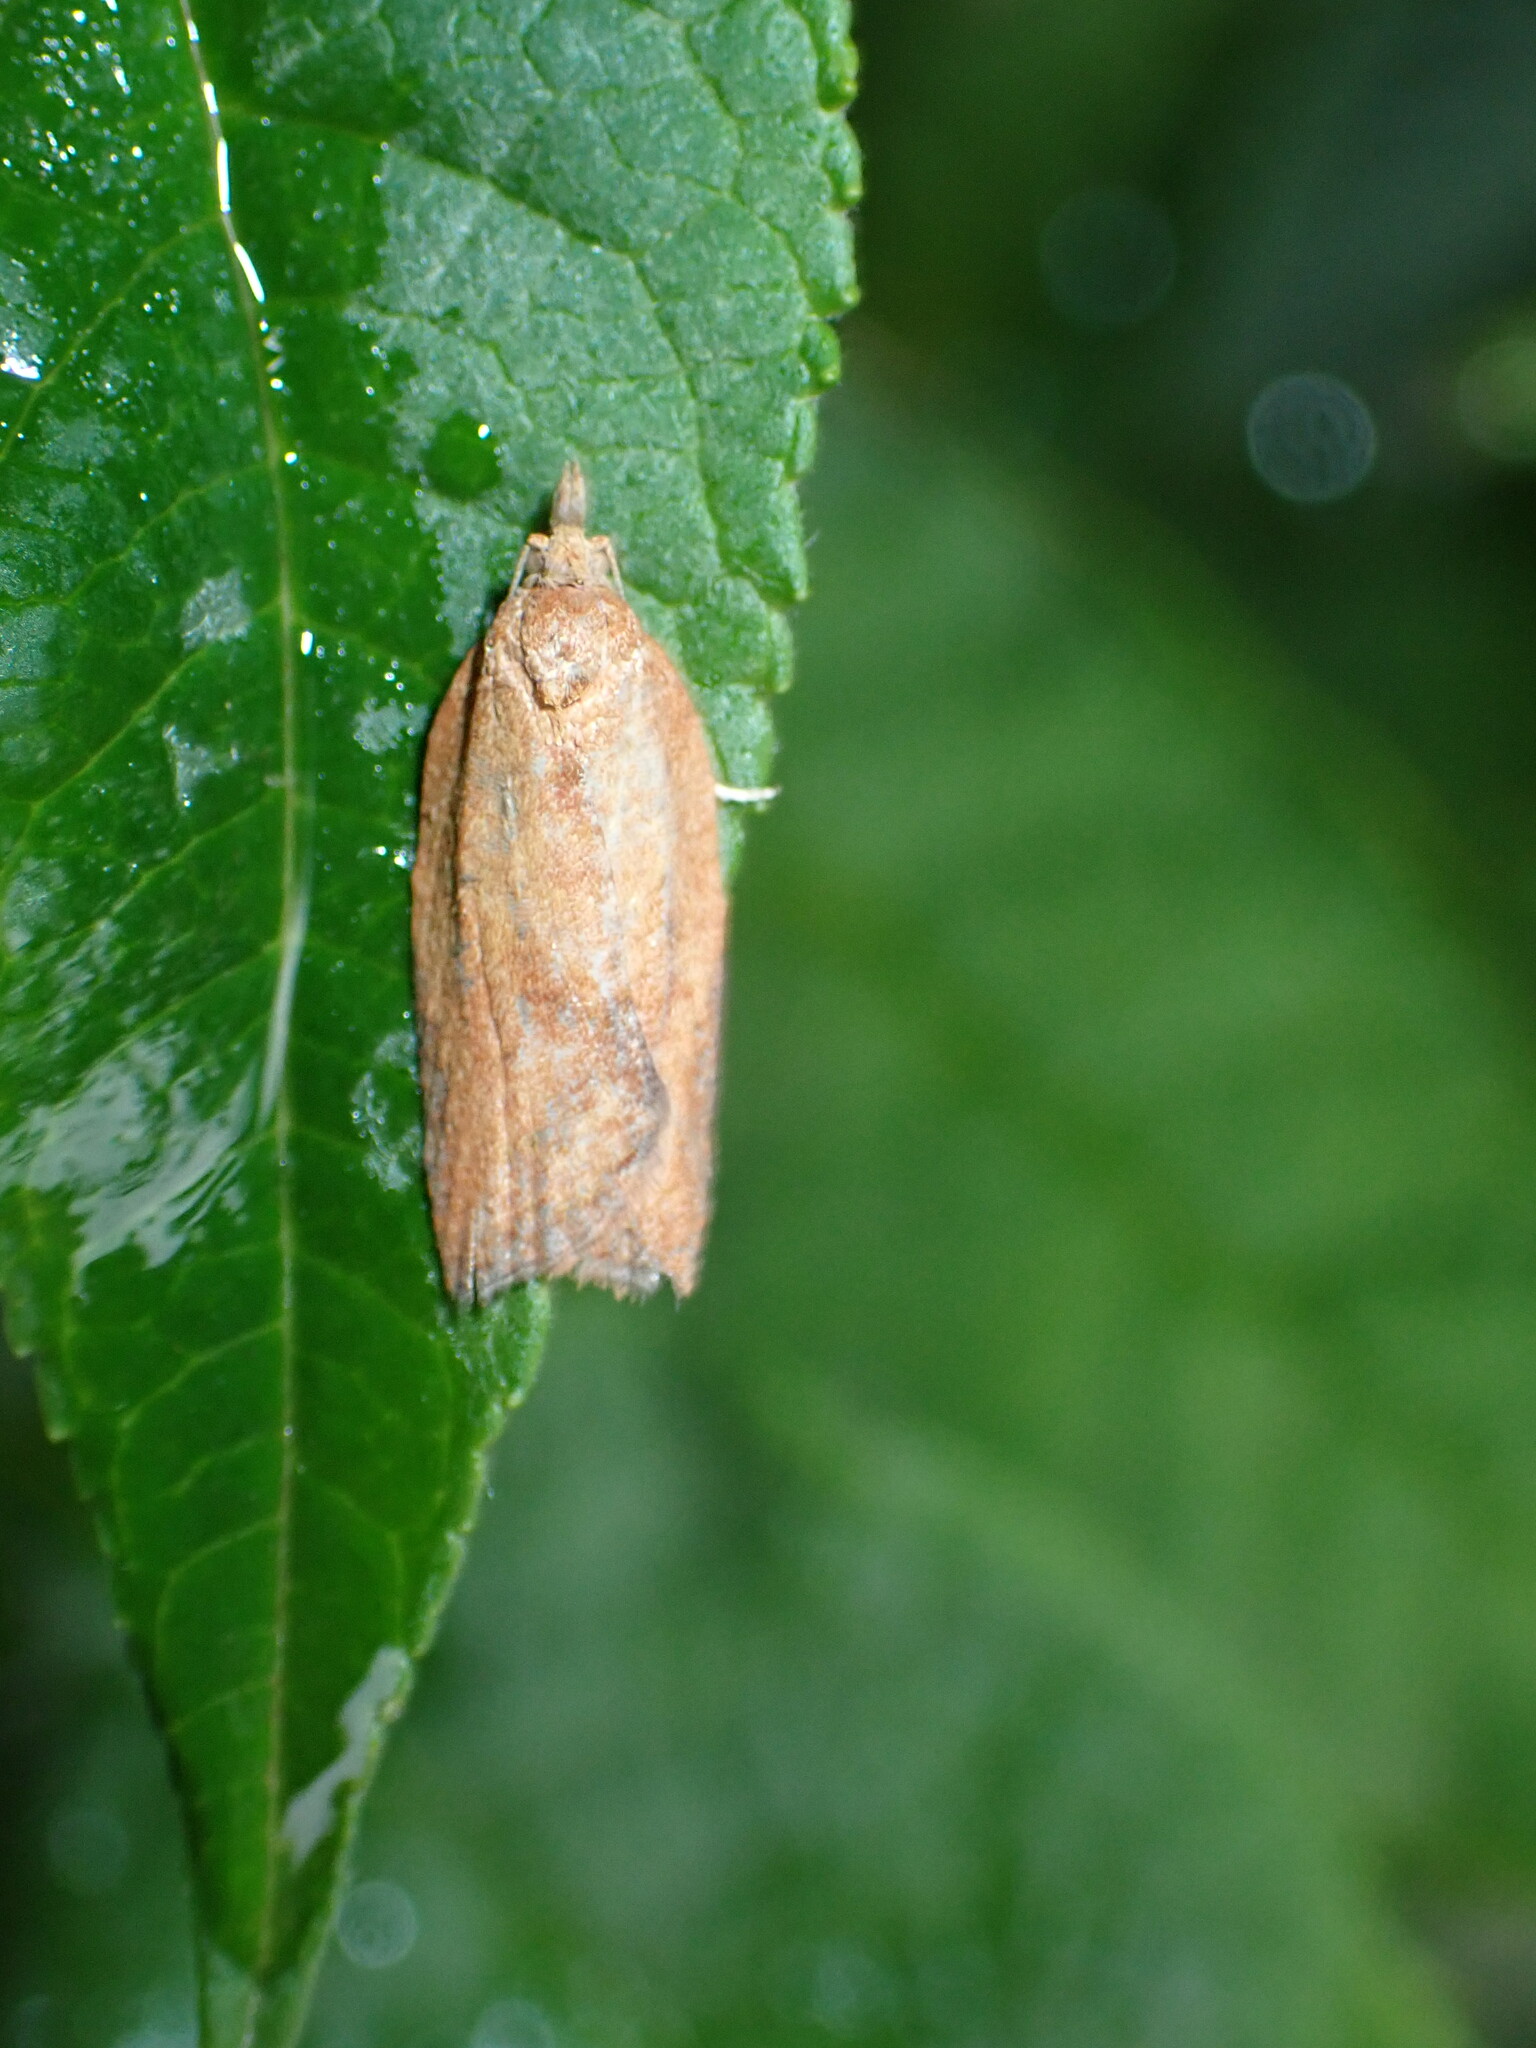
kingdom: Animalia
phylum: Arthropoda
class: Insecta
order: Lepidoptera
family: Tortricidae
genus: Epiphyas
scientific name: Epiphyas postvittana
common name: Light brown apple moth
